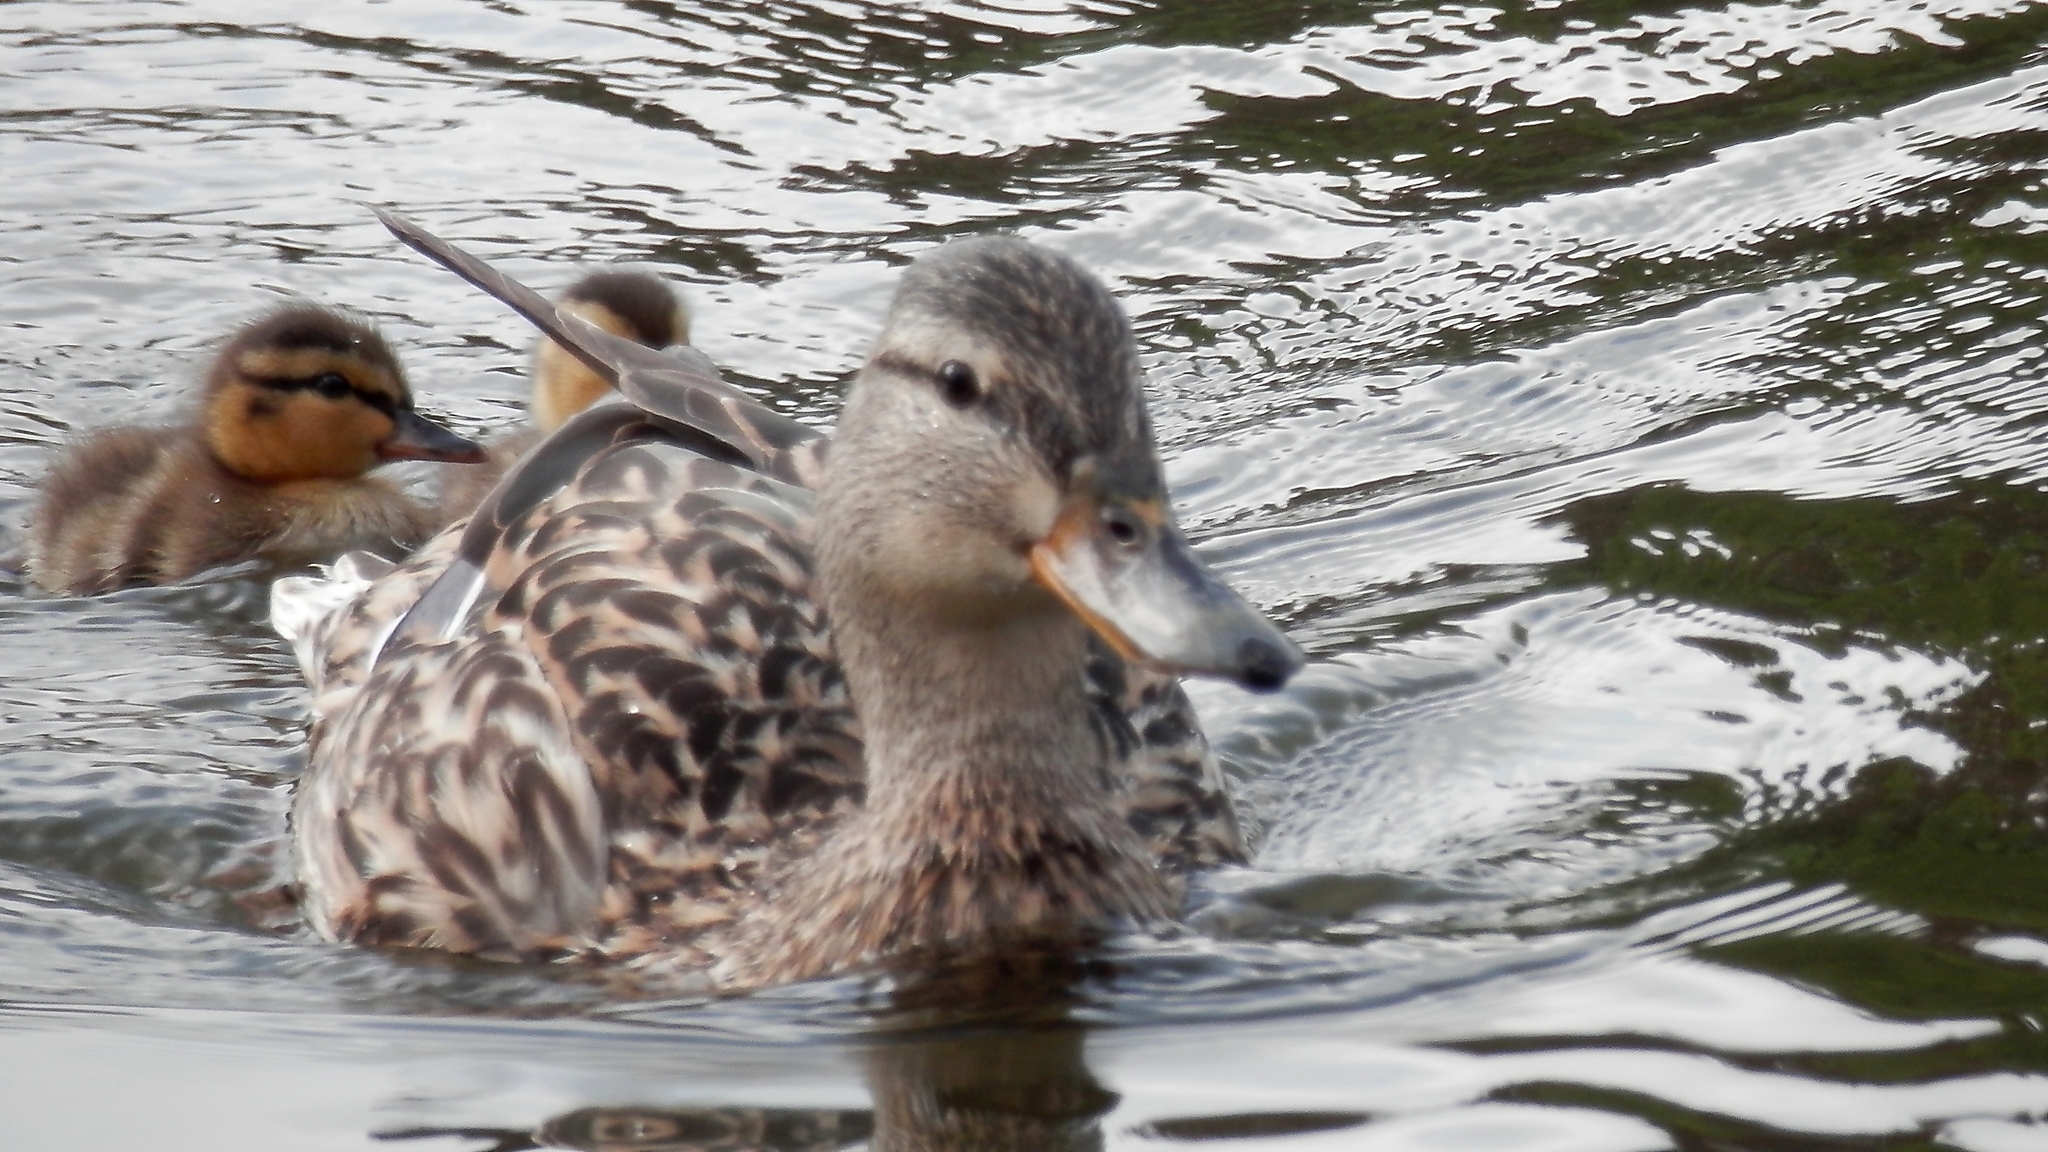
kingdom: Animalia
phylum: Chordata
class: Aves
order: Anseriformes
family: Anatidae
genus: Anas
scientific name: Anas platyrhynchos
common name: Mallard
